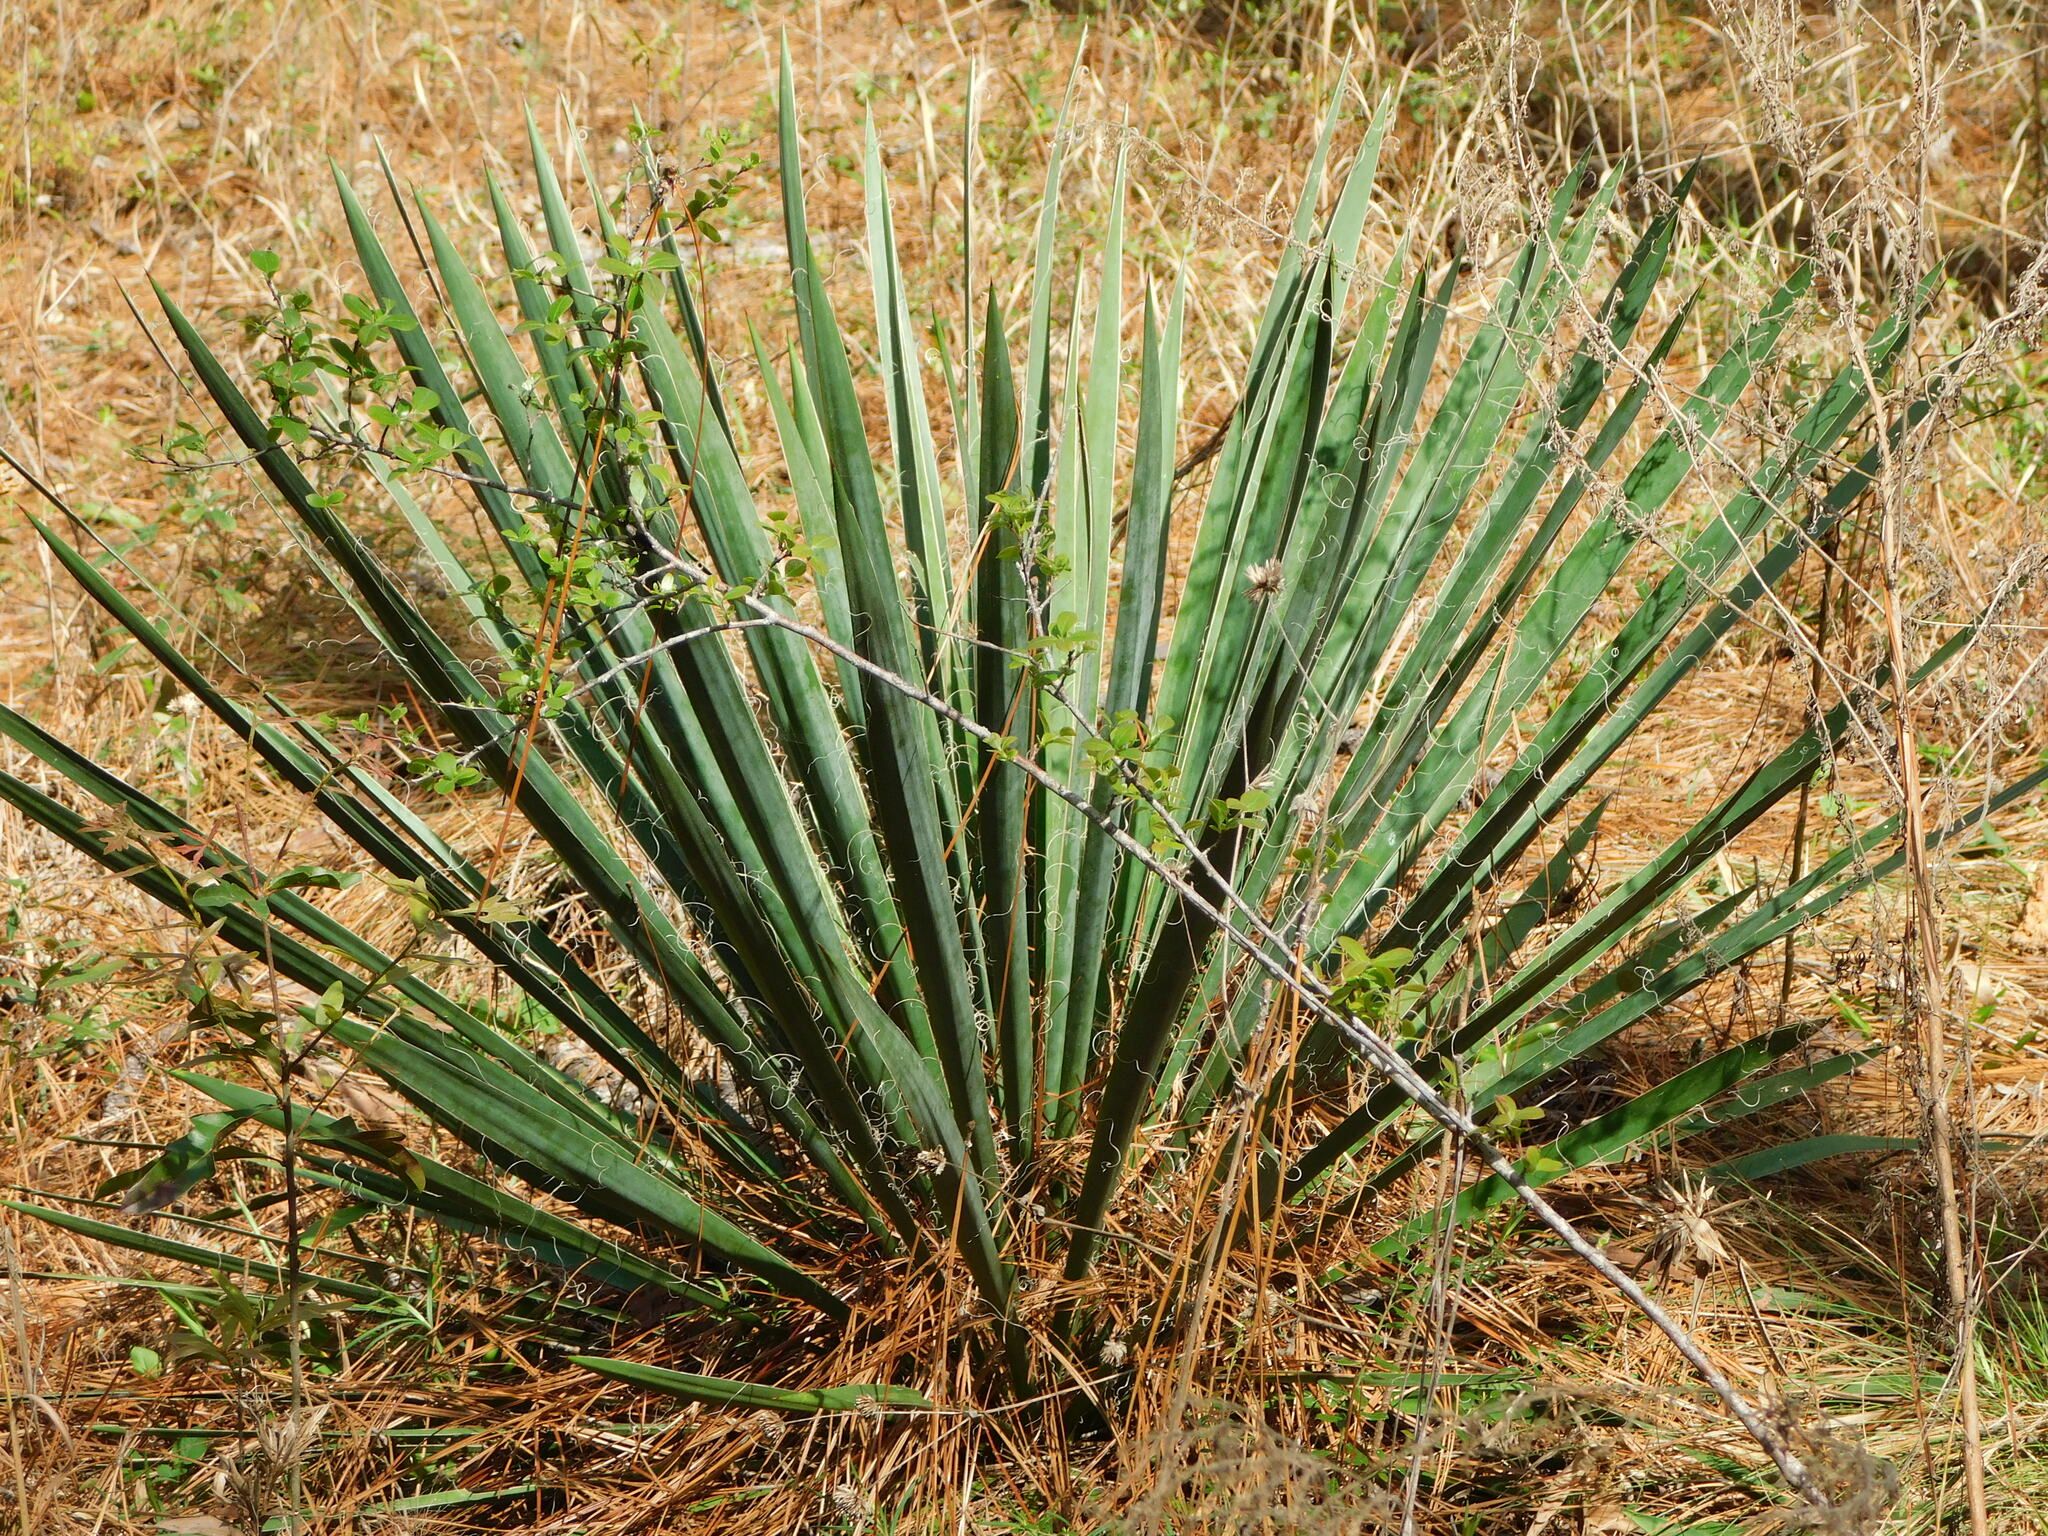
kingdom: Plantae
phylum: Tracheophyta
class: Liliopsida
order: Asparagales
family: Asparagaceae
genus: Yucca
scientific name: Yucca filamentosa
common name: Adam's-needle
